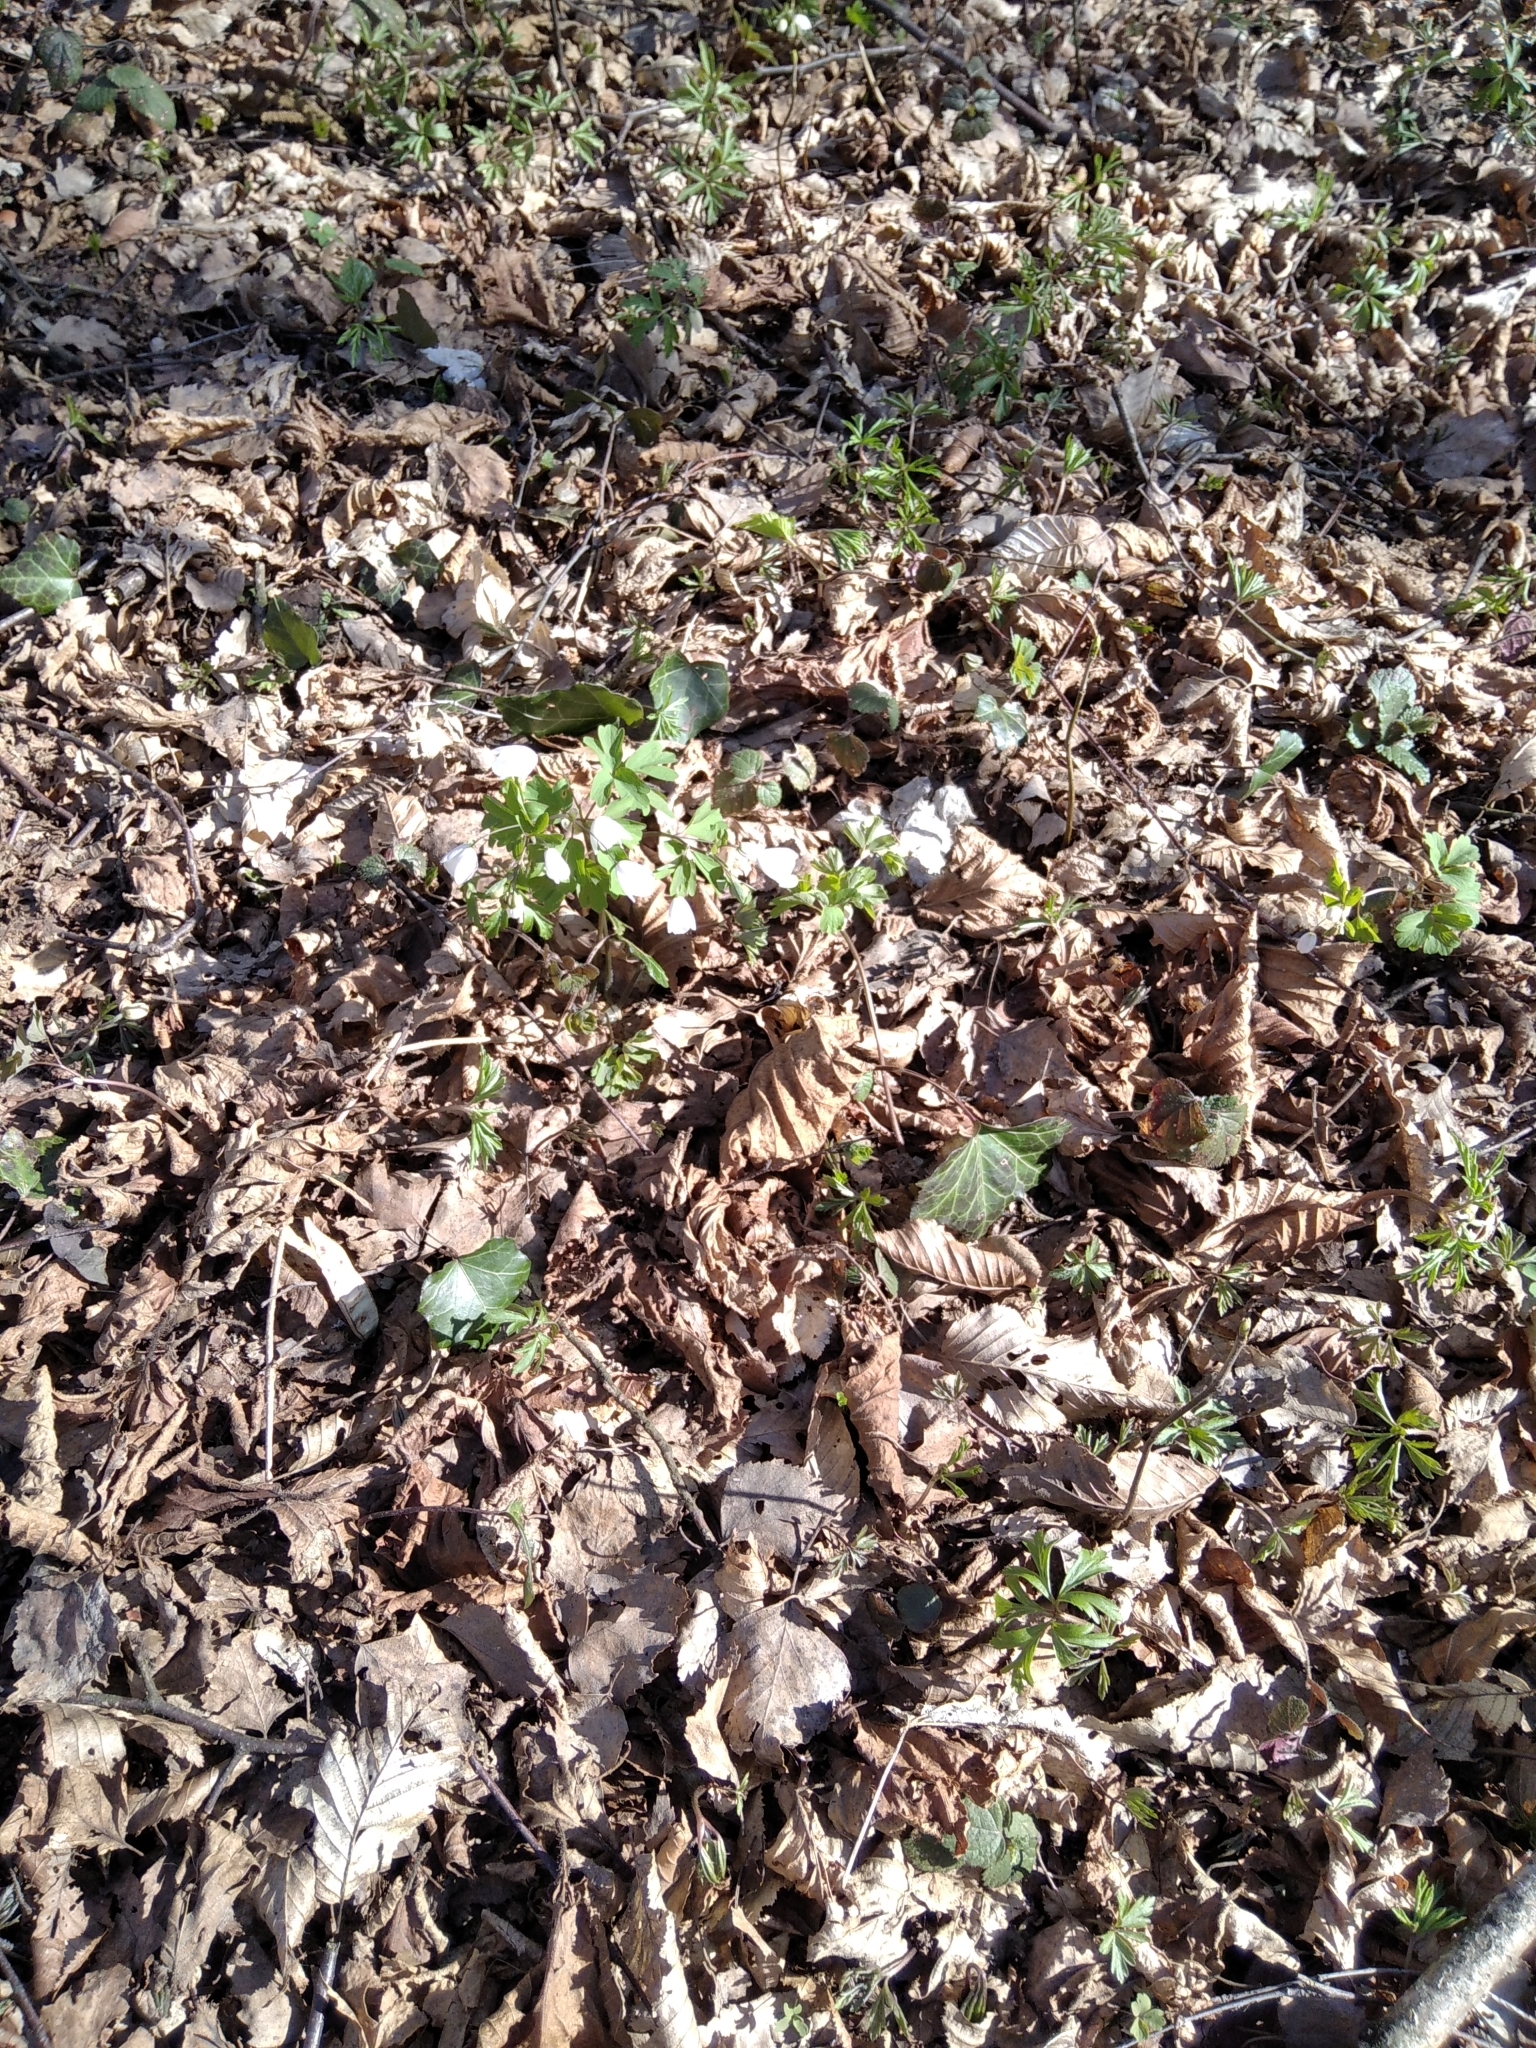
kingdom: Plantae
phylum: Tracheophyta
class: Magnoliopsida
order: Ranunculales
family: Ranunculaceae
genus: Isopyrum
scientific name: Isopyrum thalictroides
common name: Isopyrum
